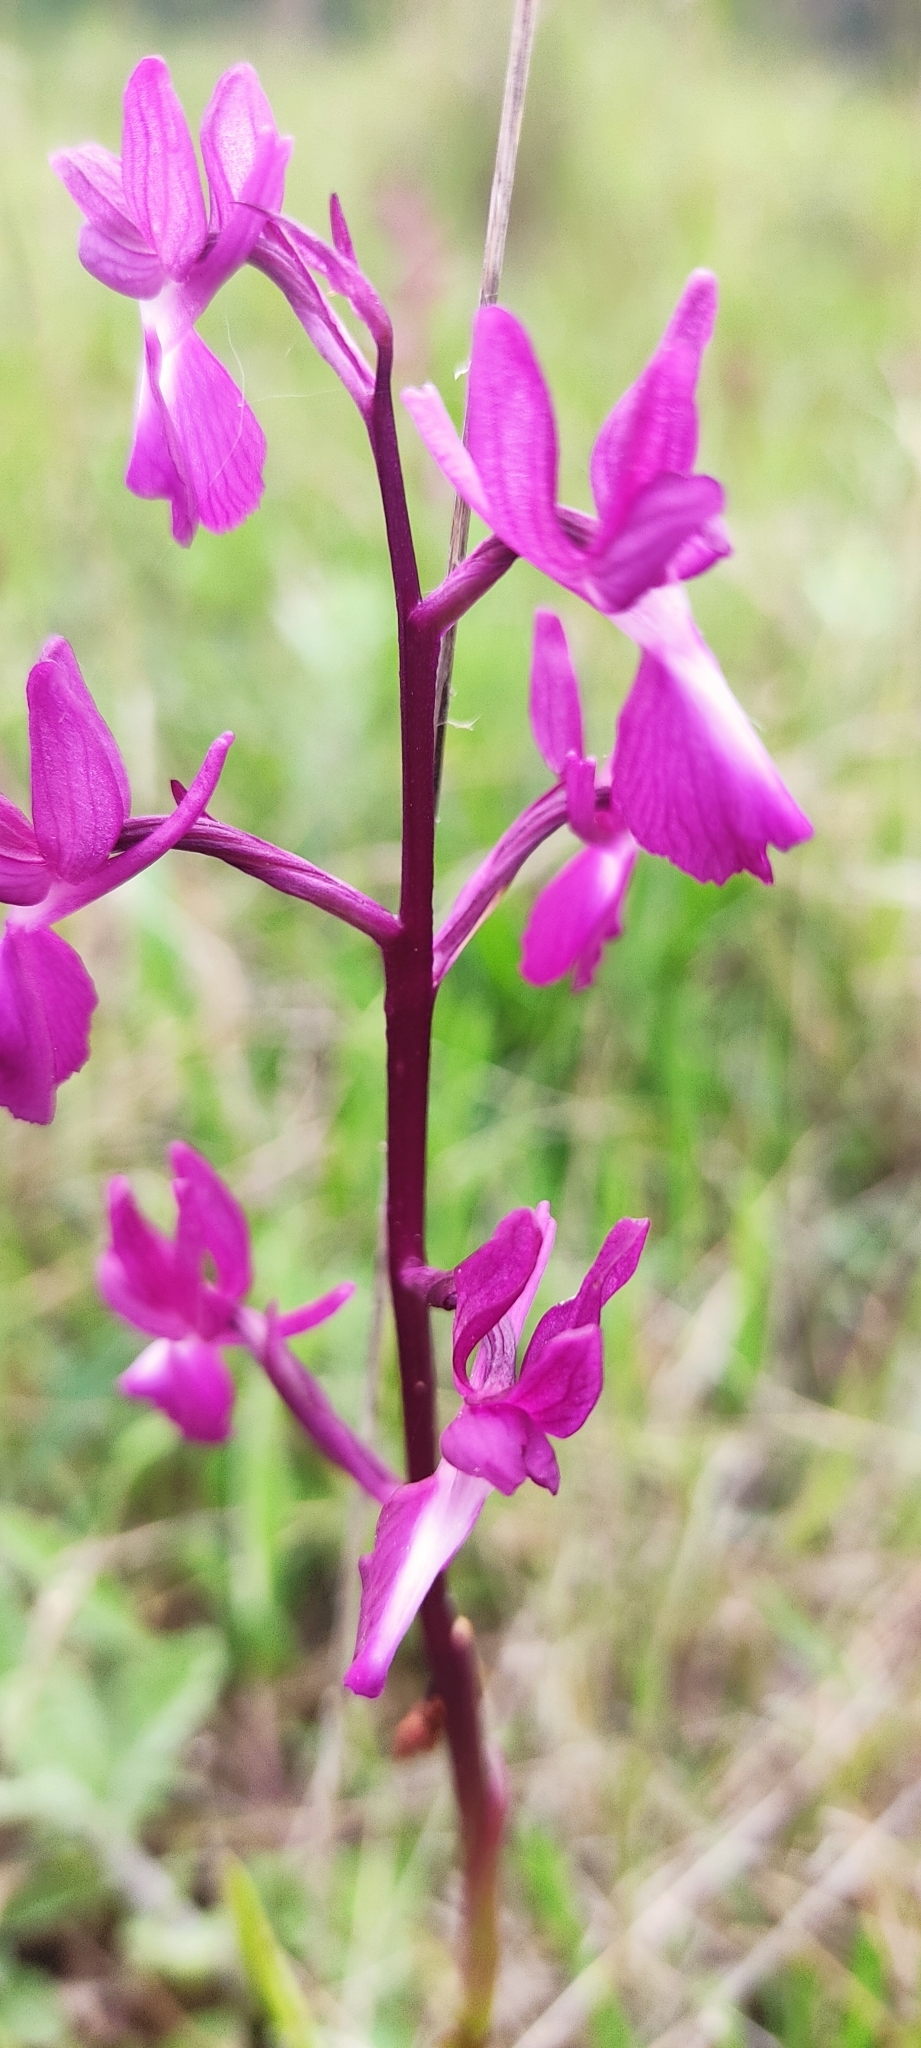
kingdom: Plantae
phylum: Tracheophyta
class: Liliopsida
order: Asparagales
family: Orchidaceae
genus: Anacamptis
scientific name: Anacamptis laxiflora
